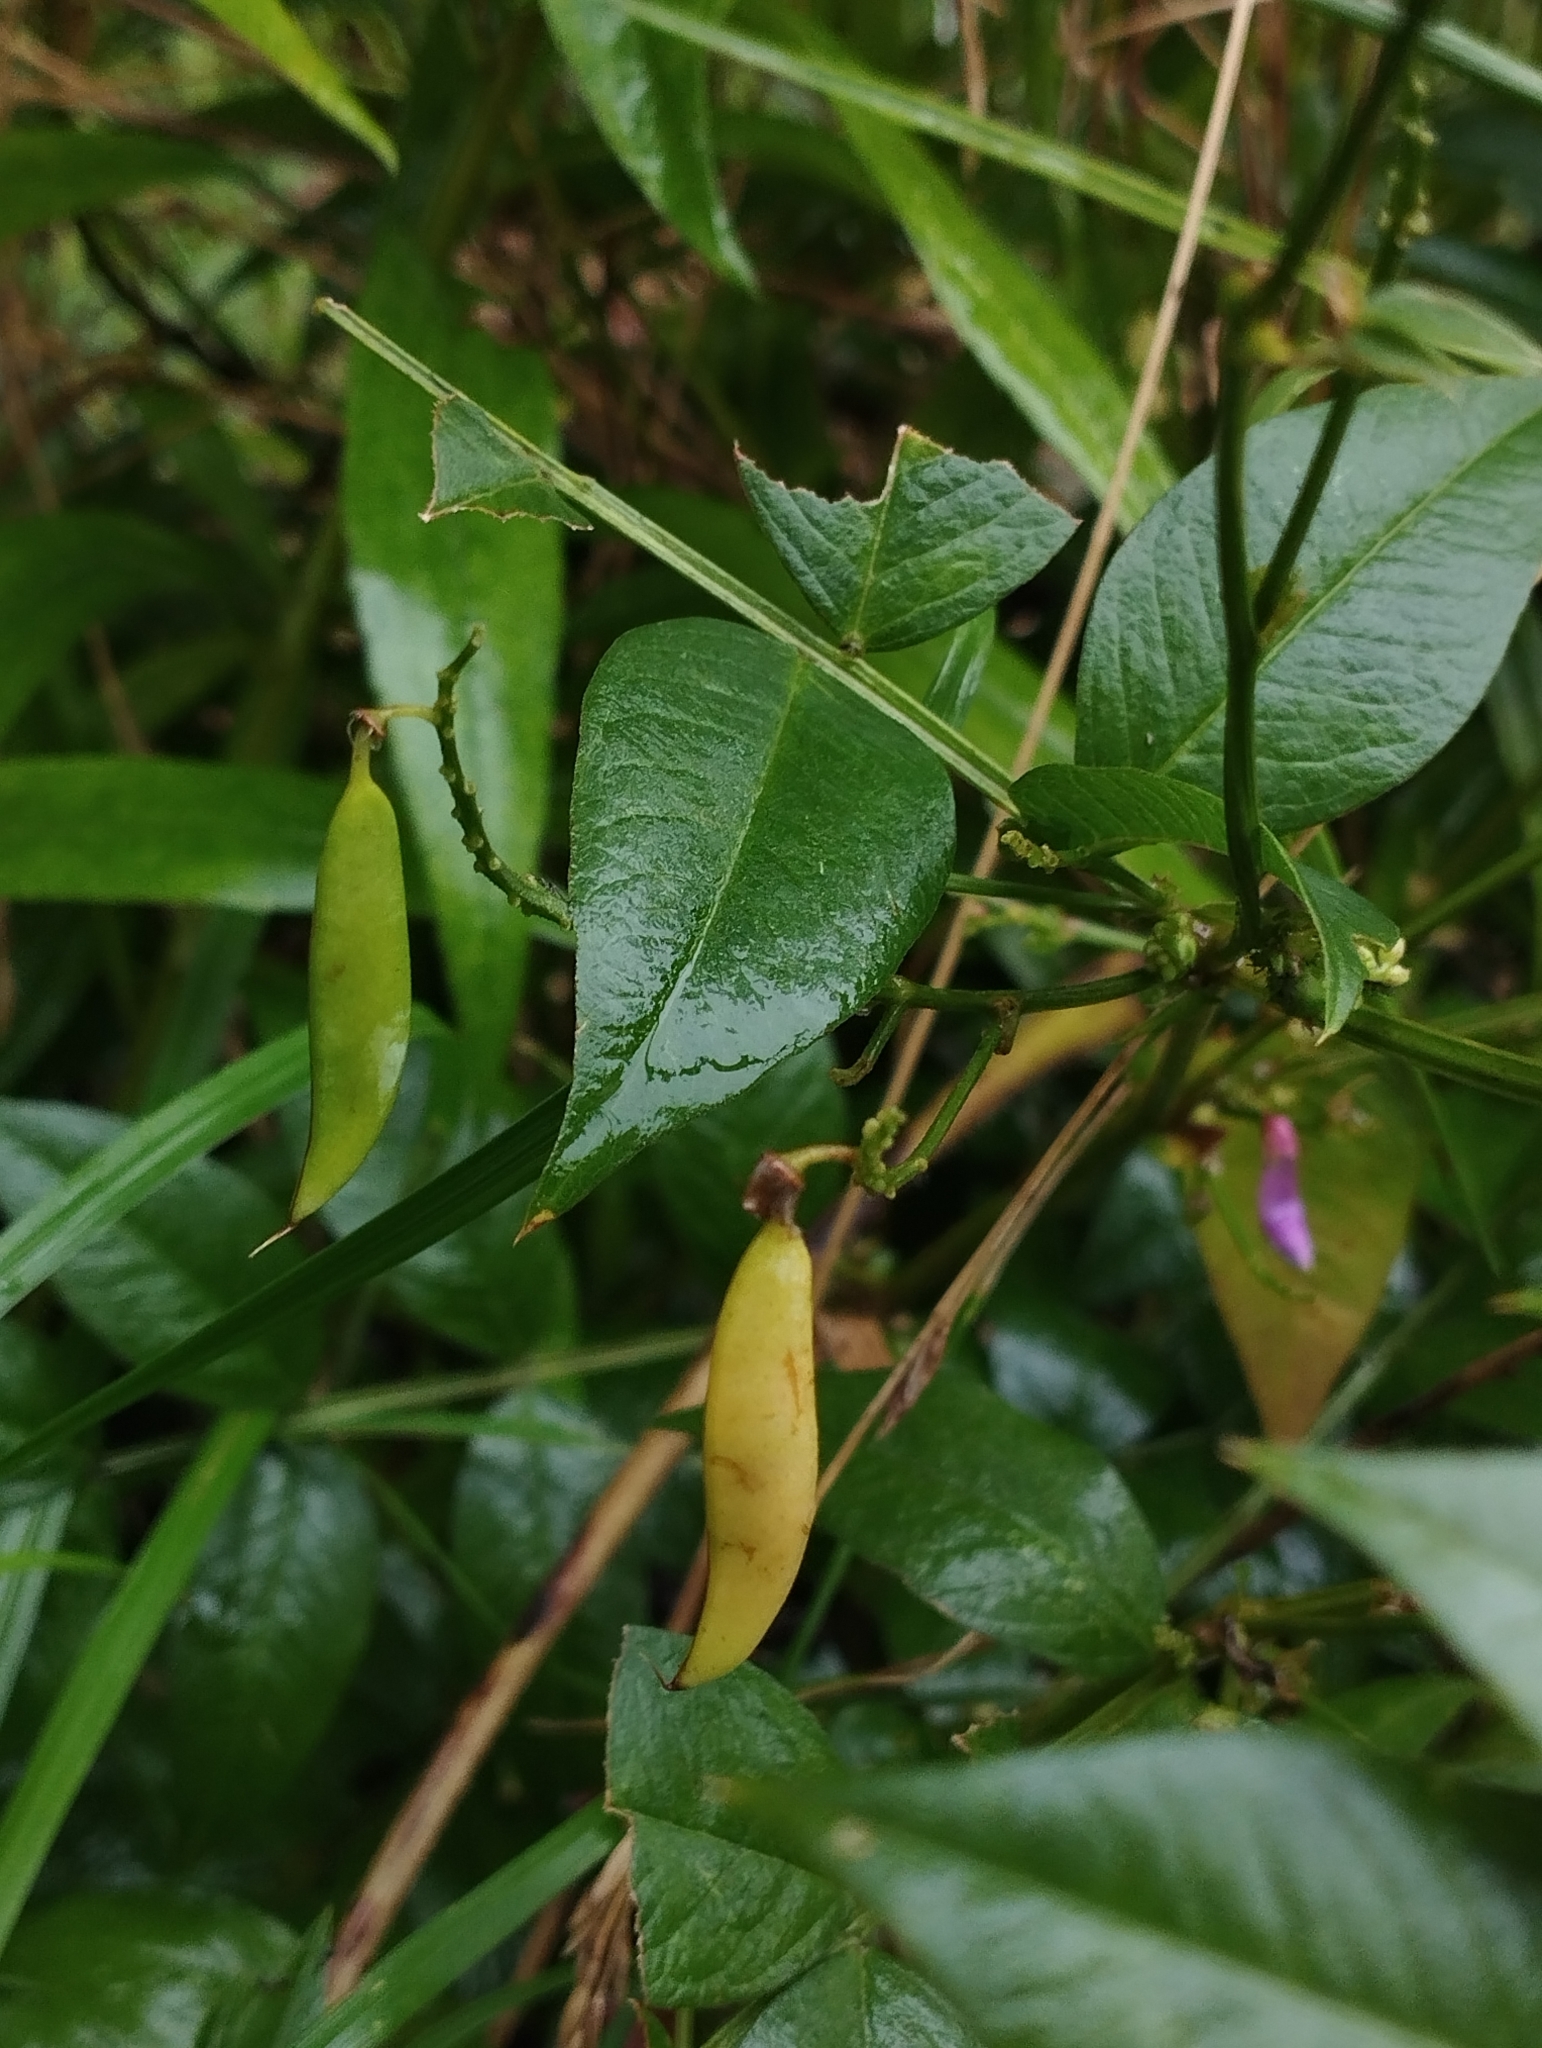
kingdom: Plantae
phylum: Tracheophyta
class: Magnoliopsida
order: Fabales
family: Fabaceae
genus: Vicia
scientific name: Vicia ramuliflora
